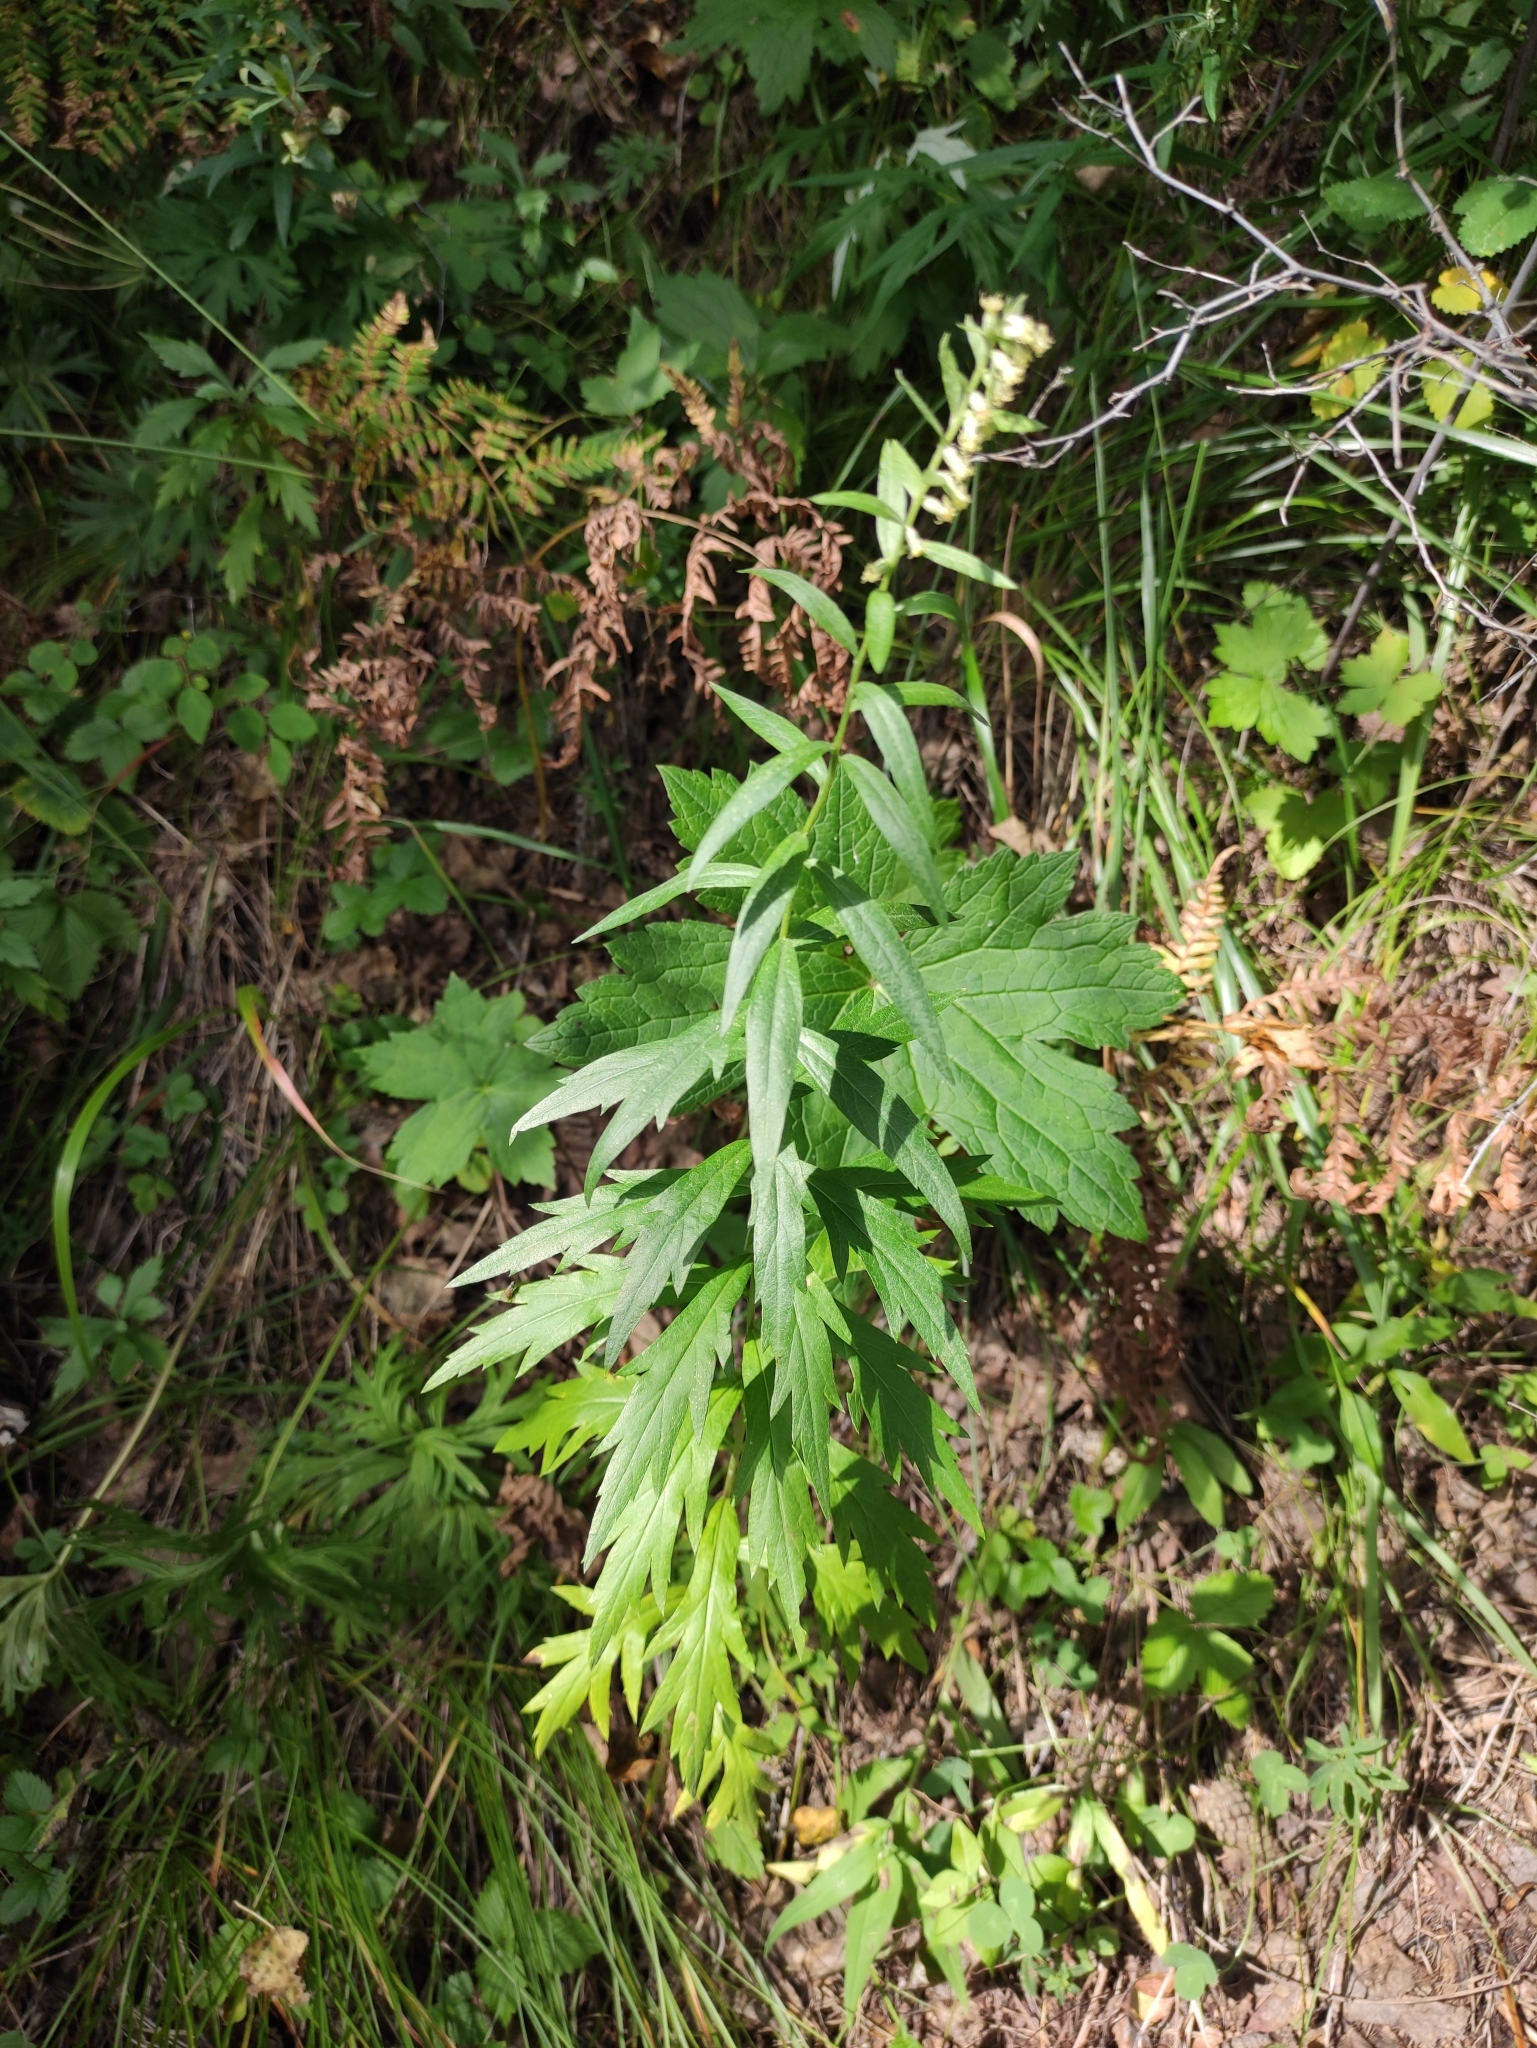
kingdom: Plantae
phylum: Tracheophyta
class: Magnoliopsida
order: Asterales
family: Asteraceae
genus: Artemisia
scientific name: Artemisia integrifolia
